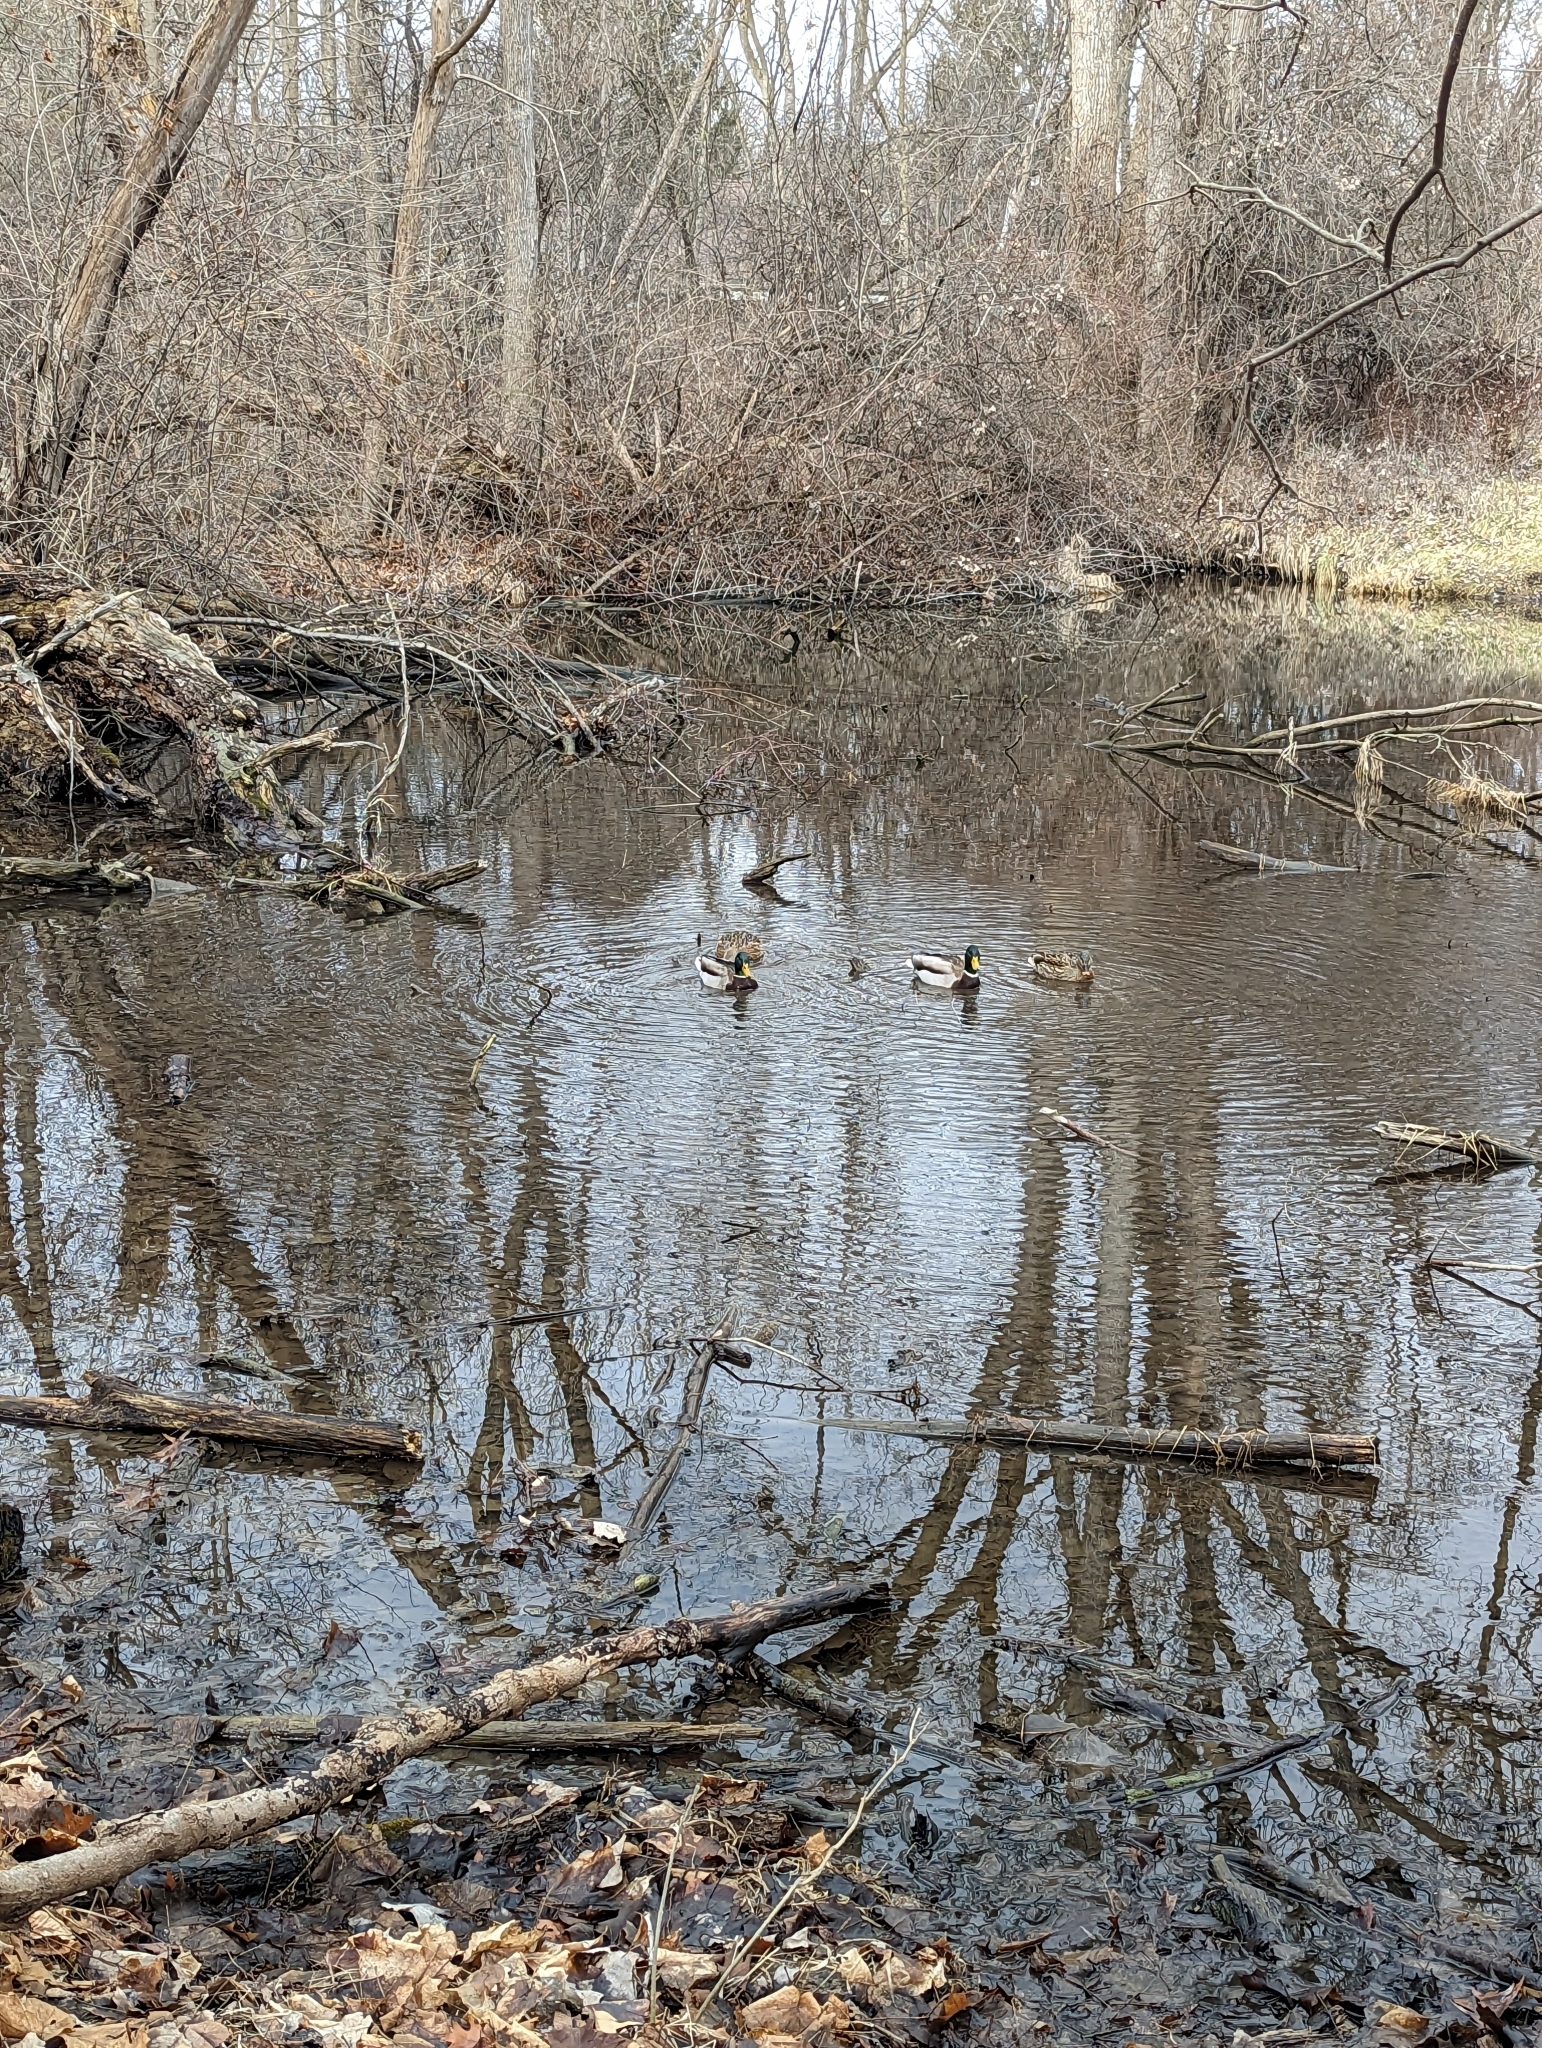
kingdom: Animalia
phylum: Chordata
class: Aves
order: Anseriformes
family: Anatidae
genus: Anas
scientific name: Anas platyrhynchos
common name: Mallard
